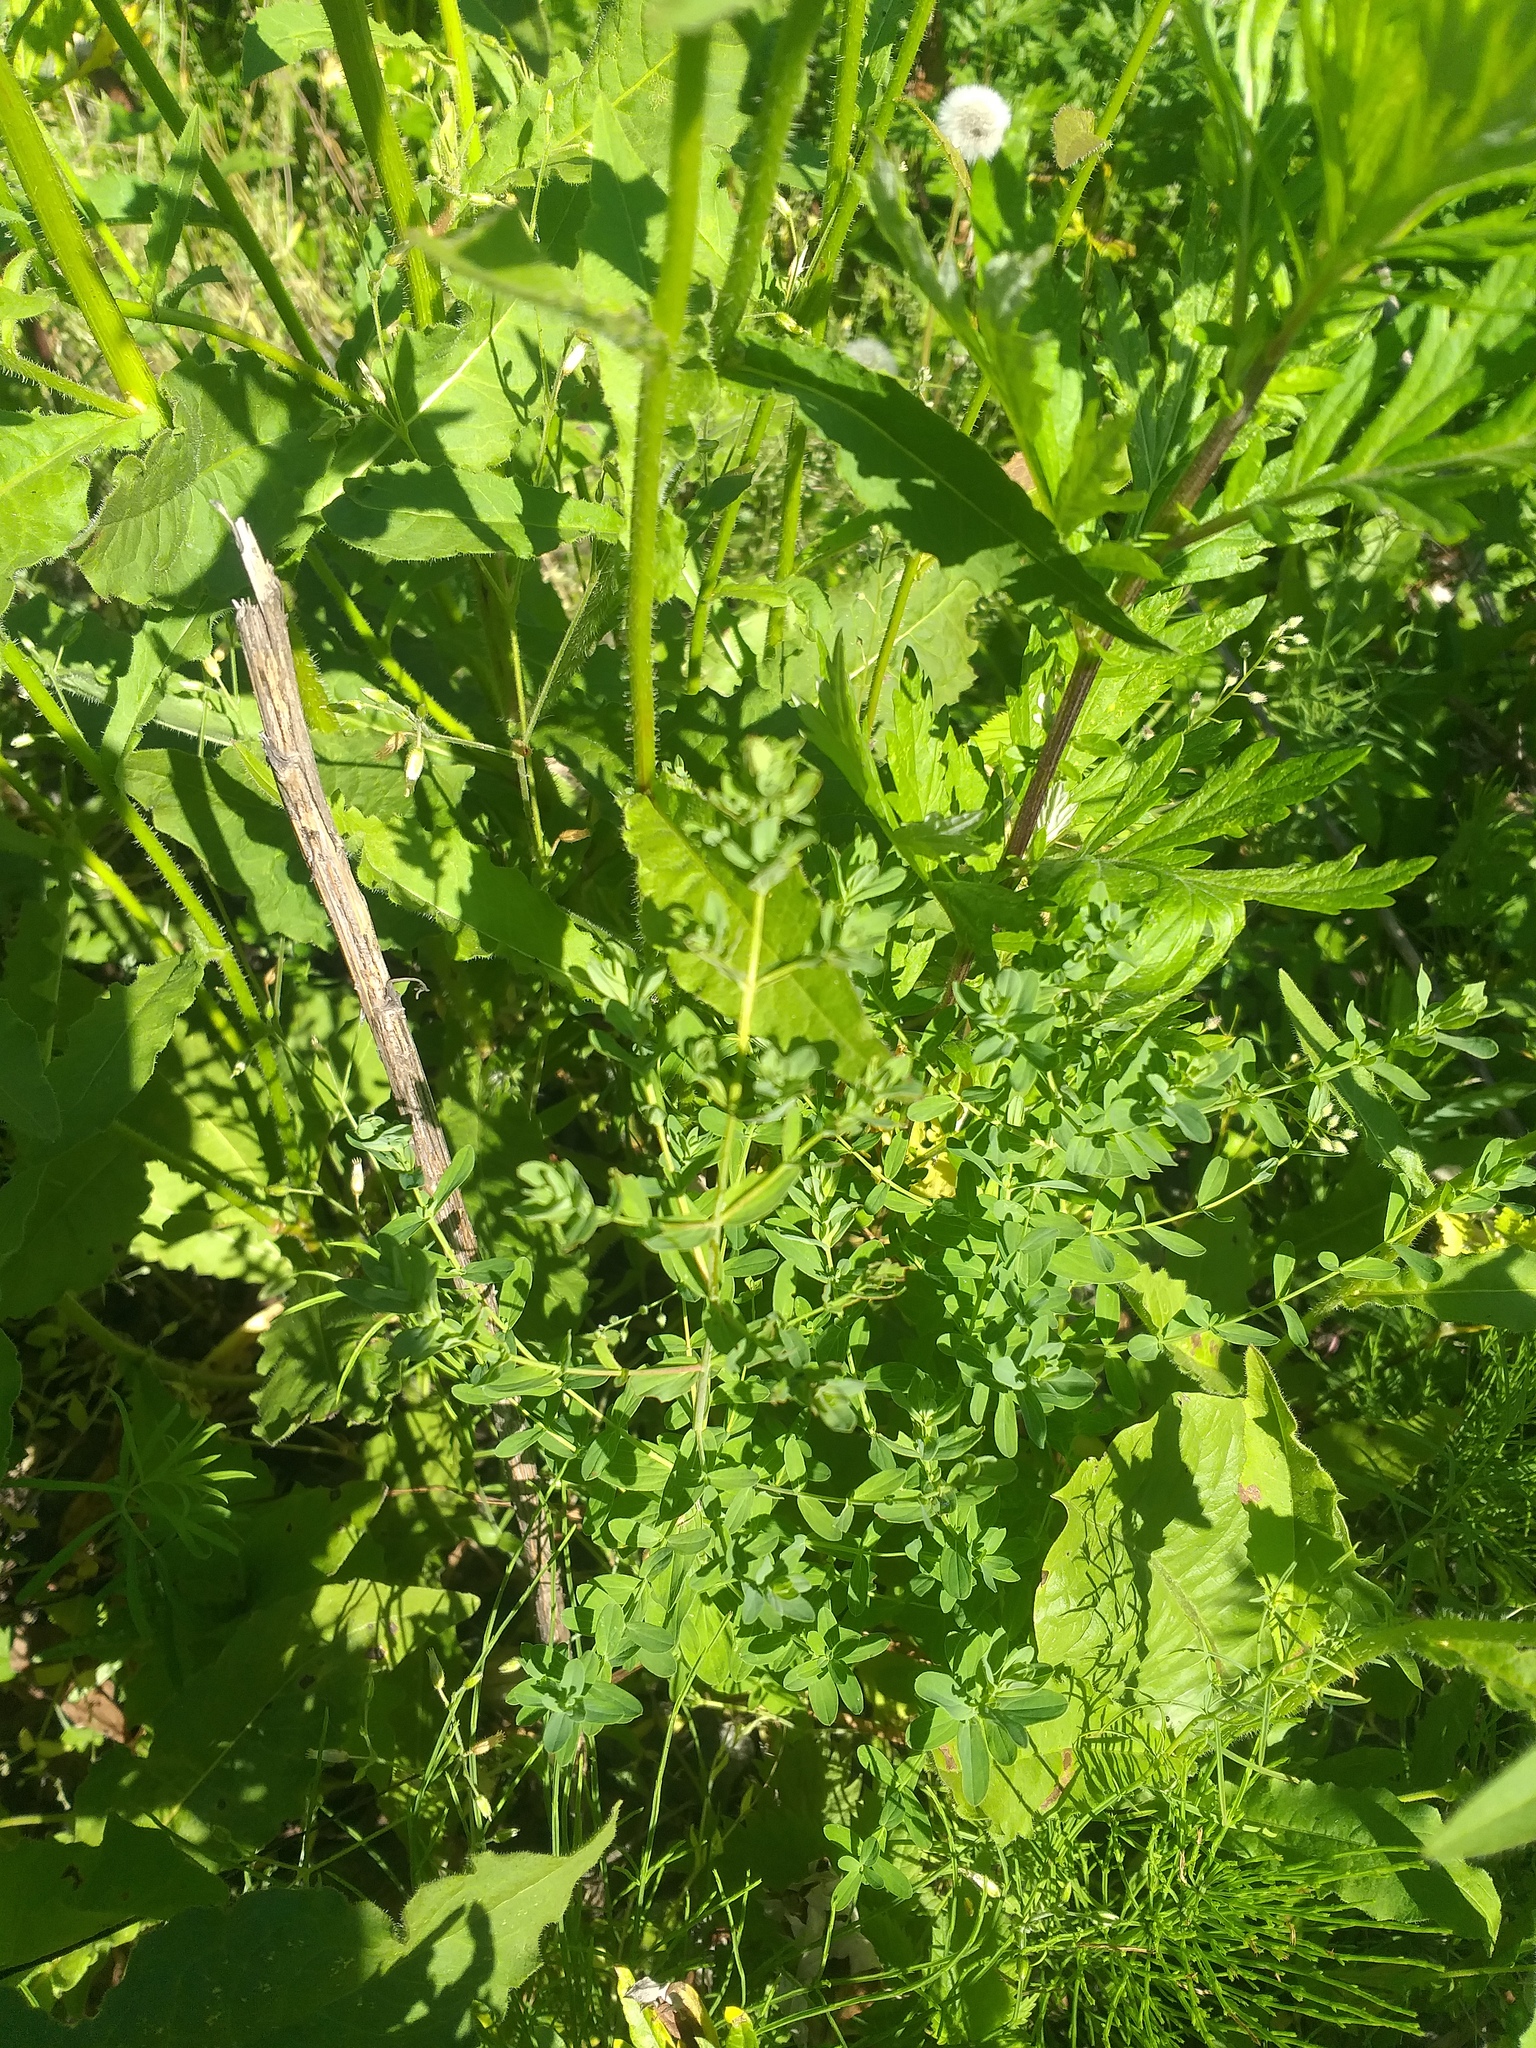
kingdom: Plantae
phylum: Tracheophyta
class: Magnoliopsida
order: Malpighiales
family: Hypericaceae
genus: Hypericum
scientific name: Hypericum perforatum
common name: Common st. johnswort
